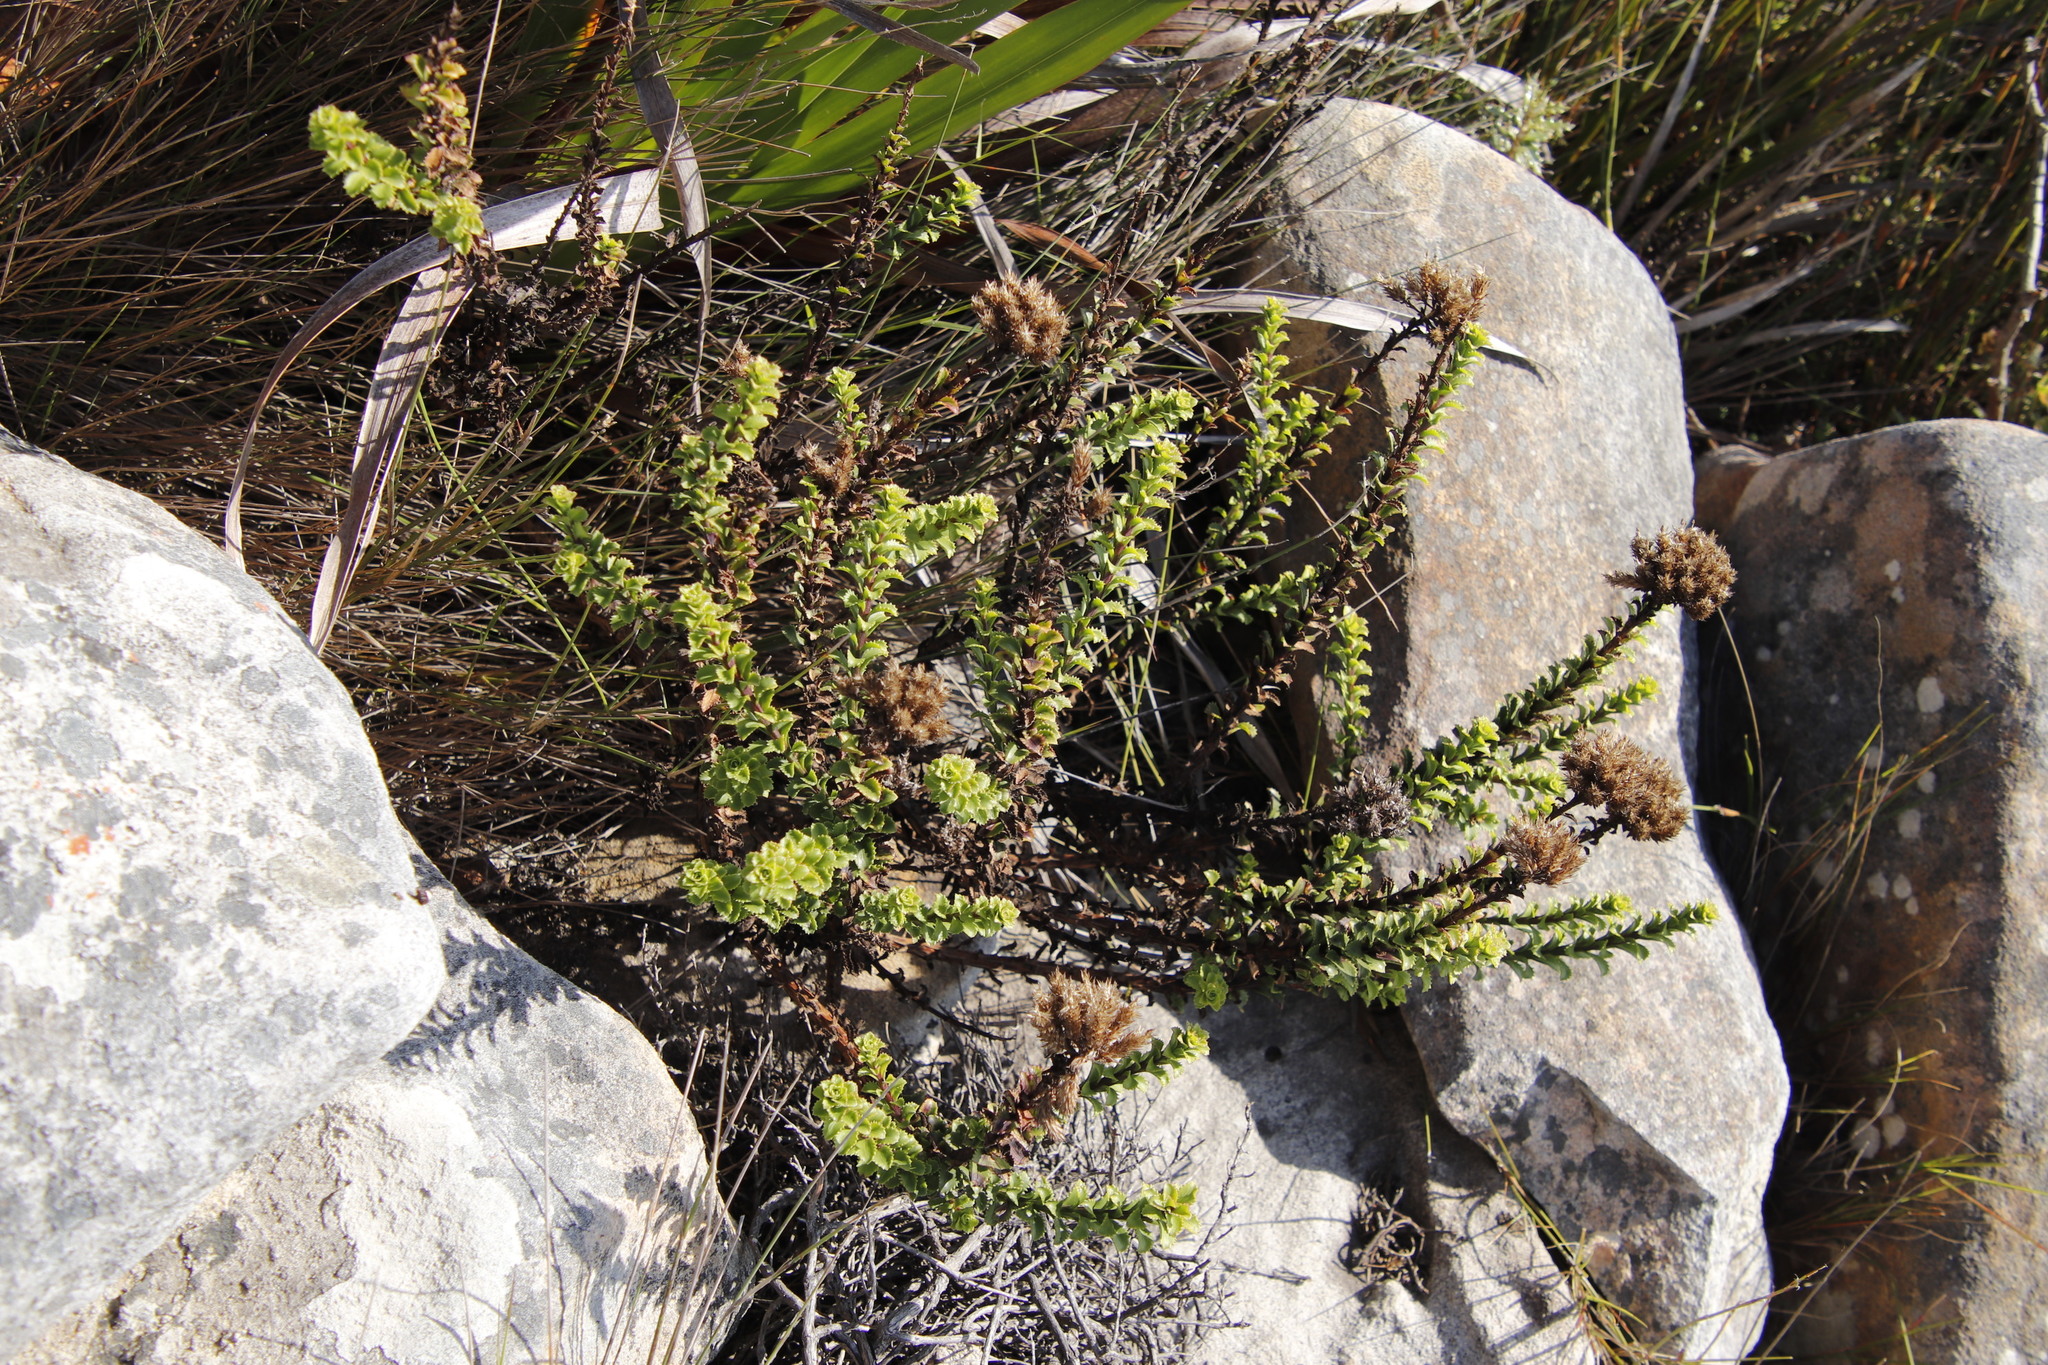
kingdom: Plantae
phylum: Tracheophyta
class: Magnoliopsida
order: Lamiales
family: Scrophulariaceae
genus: Pseudoselago
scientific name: Pseudoselago serrata
